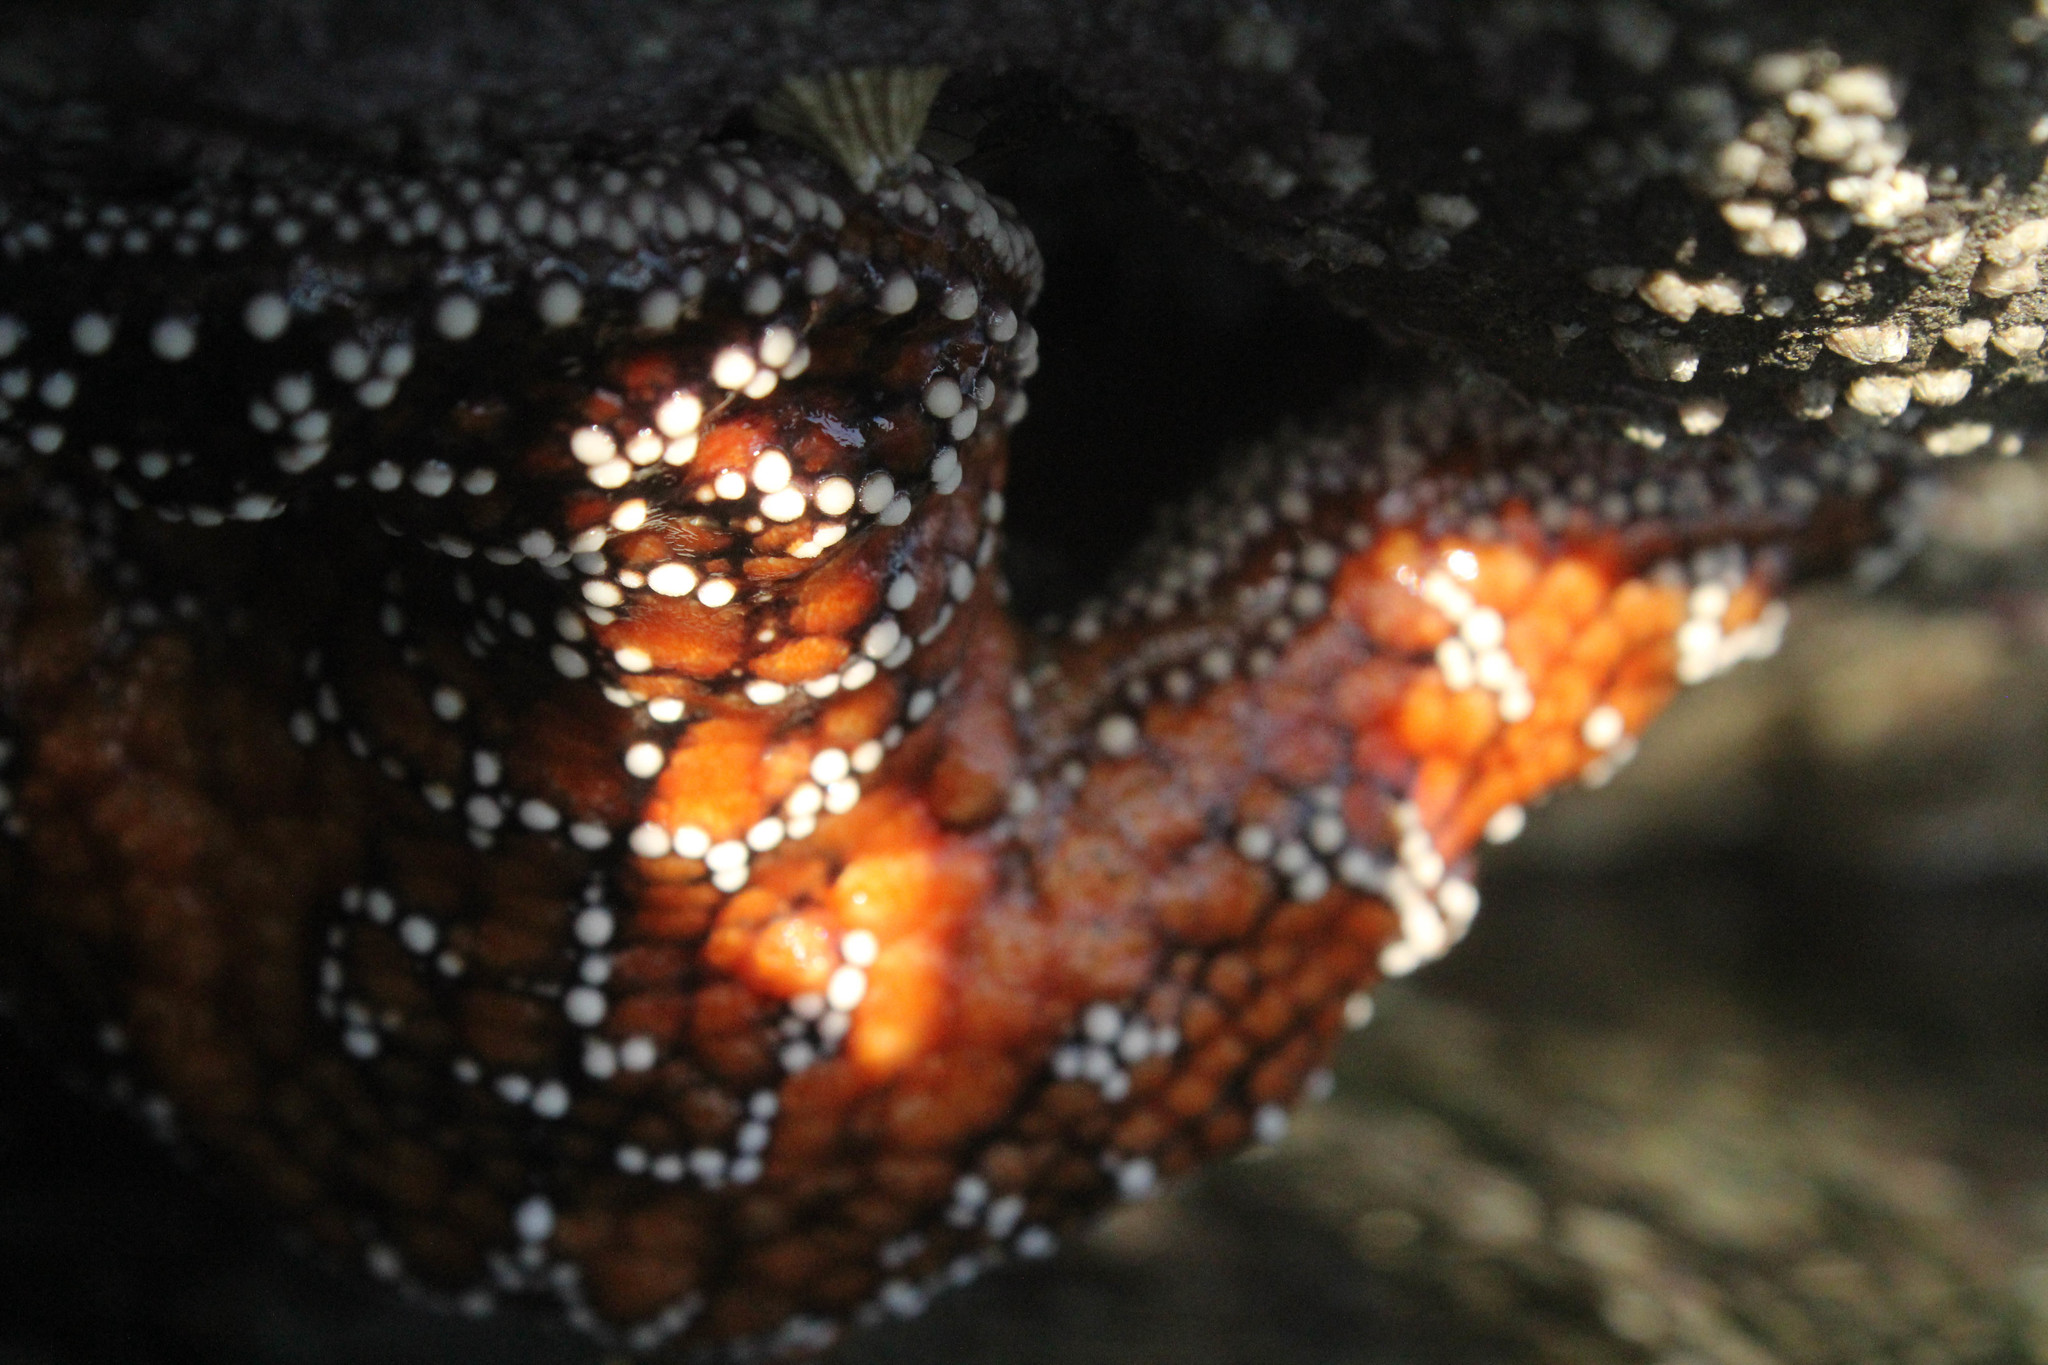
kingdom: Animalia
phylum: Echinodermata
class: Asteroidea
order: Forcipulatida
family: Asteriidae
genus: Pisaster
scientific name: Pisaster ochraceus
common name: Ochre stars
